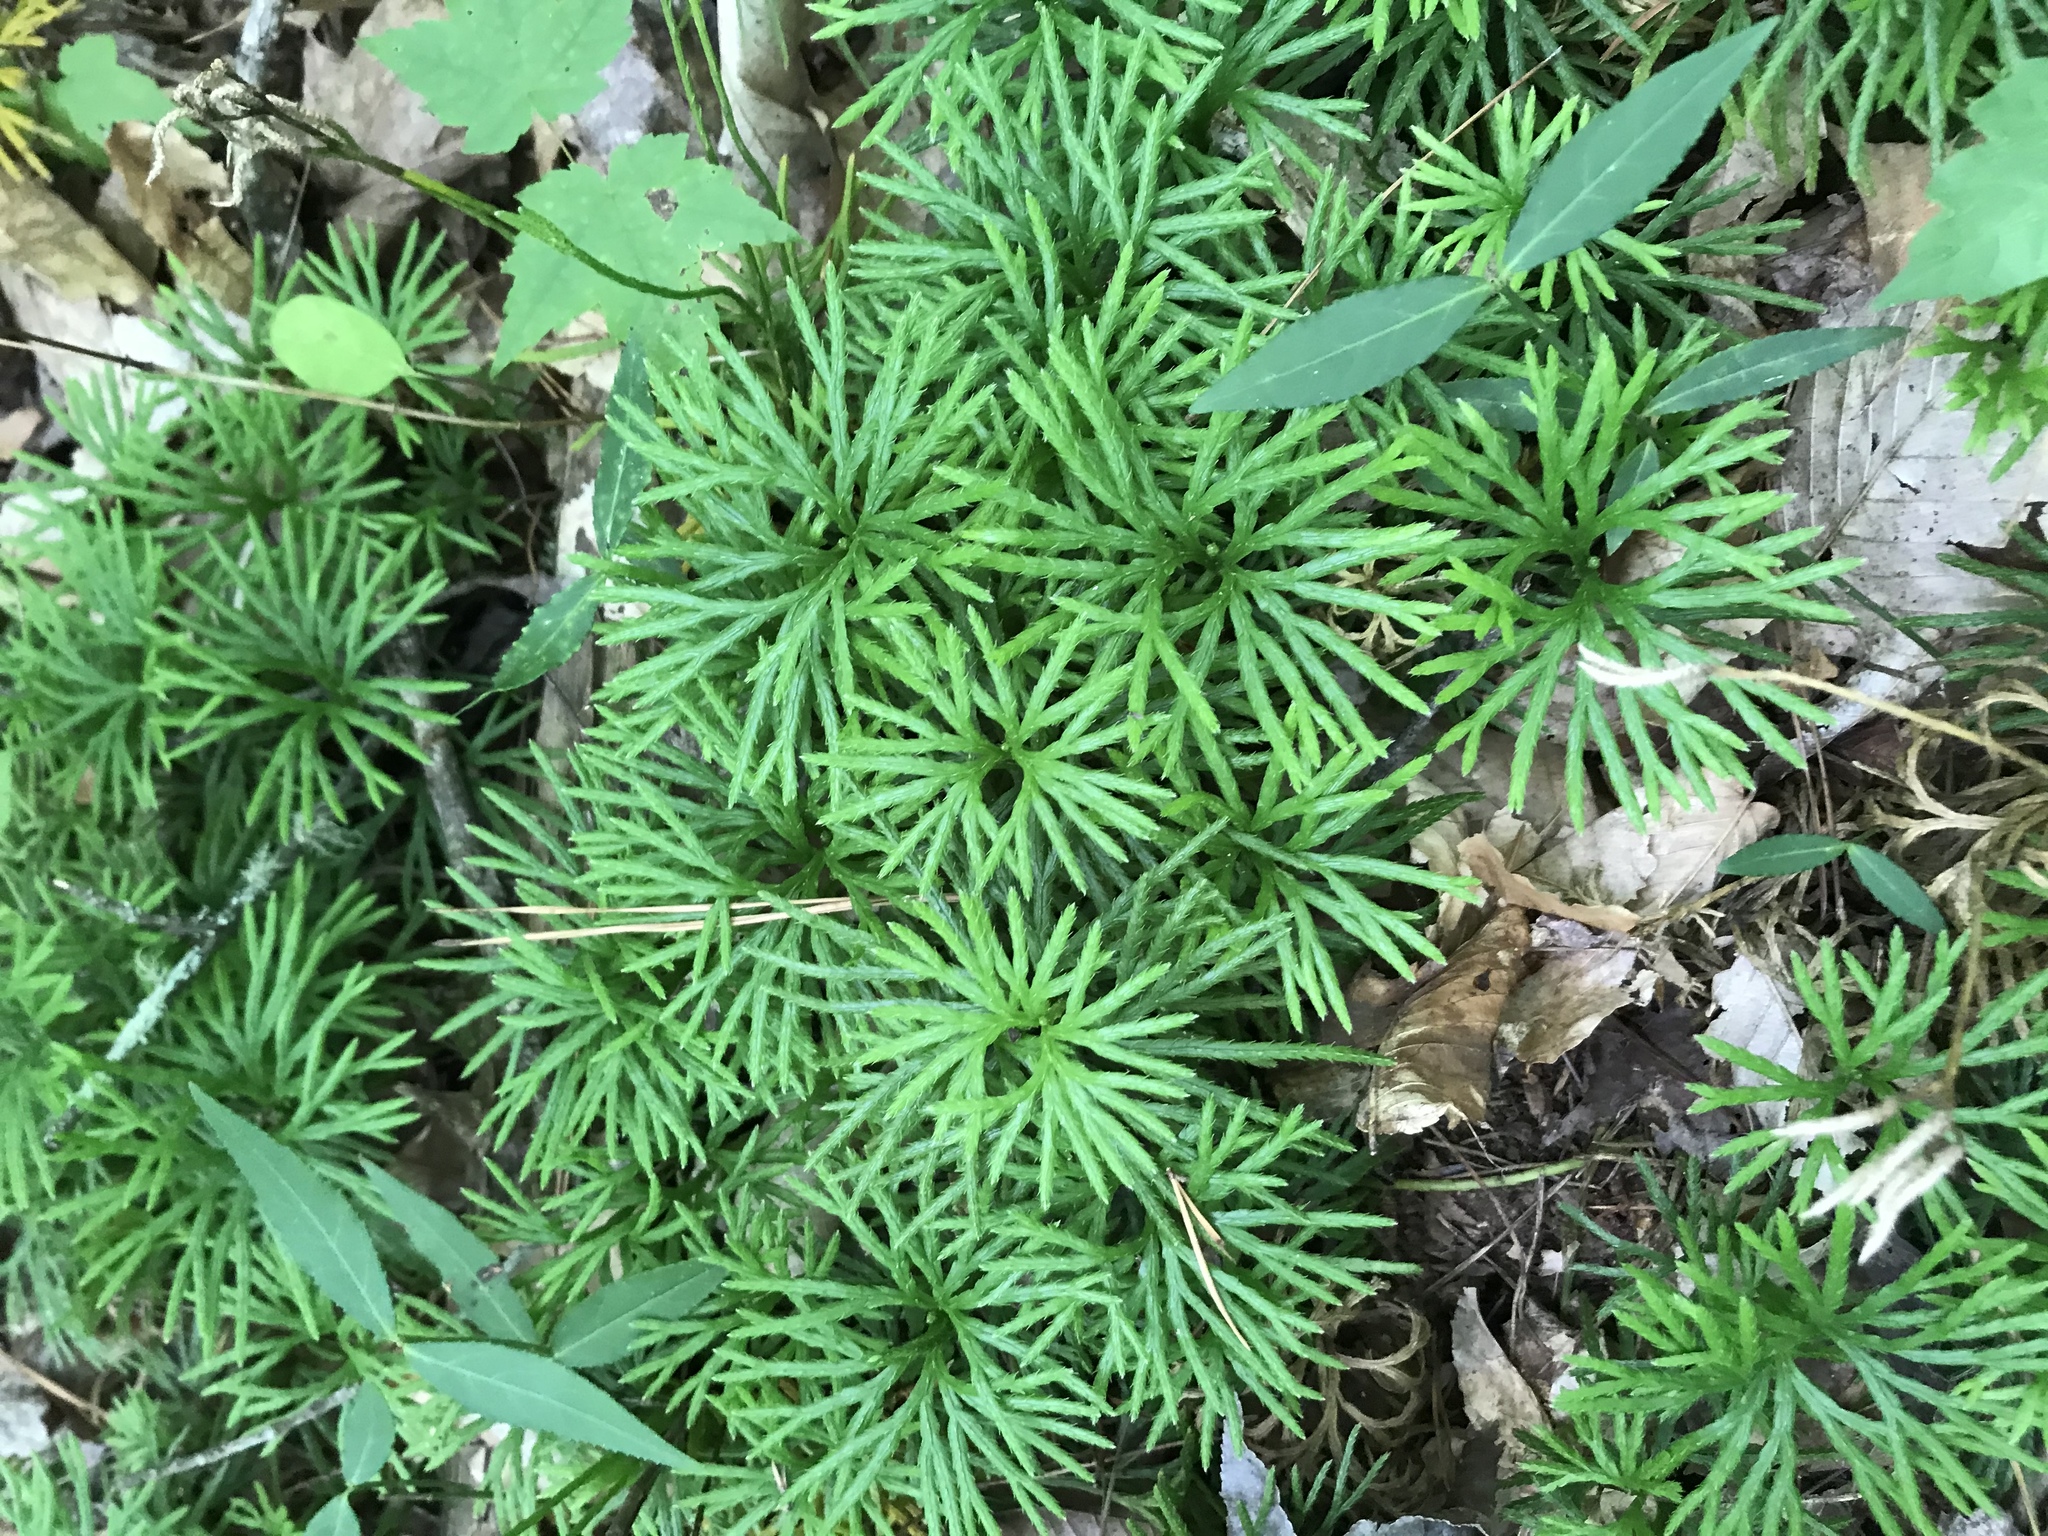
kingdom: Plantae
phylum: Tracheophyta
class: Lycopodiopsida
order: Lycopodiales
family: Lycopodiaceae
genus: Diphasiastrum
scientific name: Diphasiastrum digitatum
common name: Southern running-pine
